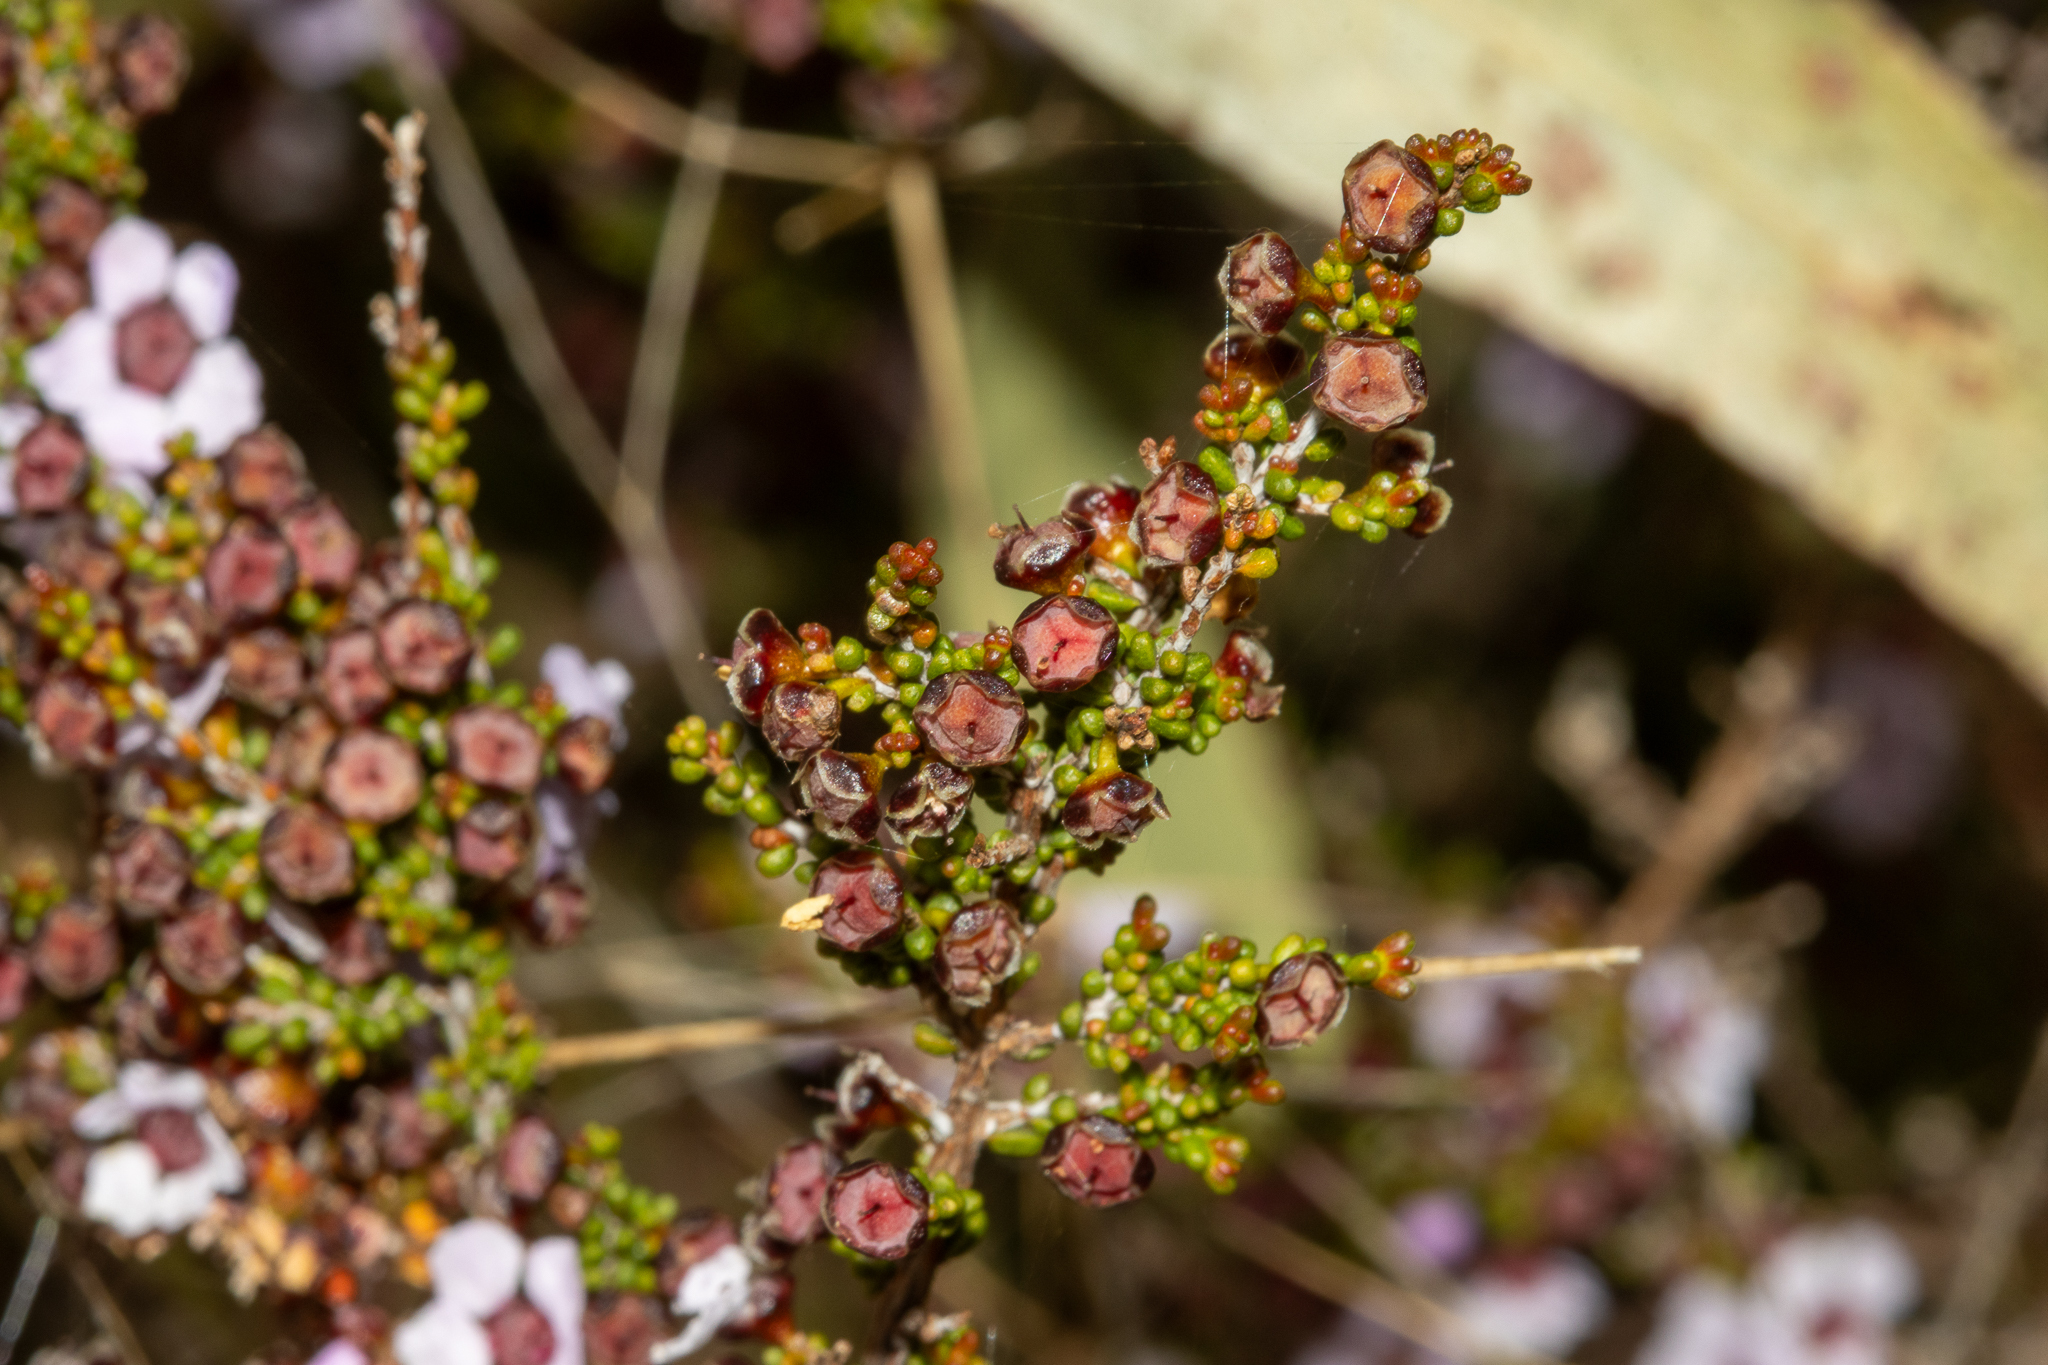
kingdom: Plantae
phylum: Tracheophyta
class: Magnoliopsida
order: Myrtales
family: Myrtaceae
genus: Rinzia
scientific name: Rinzia orientalis
